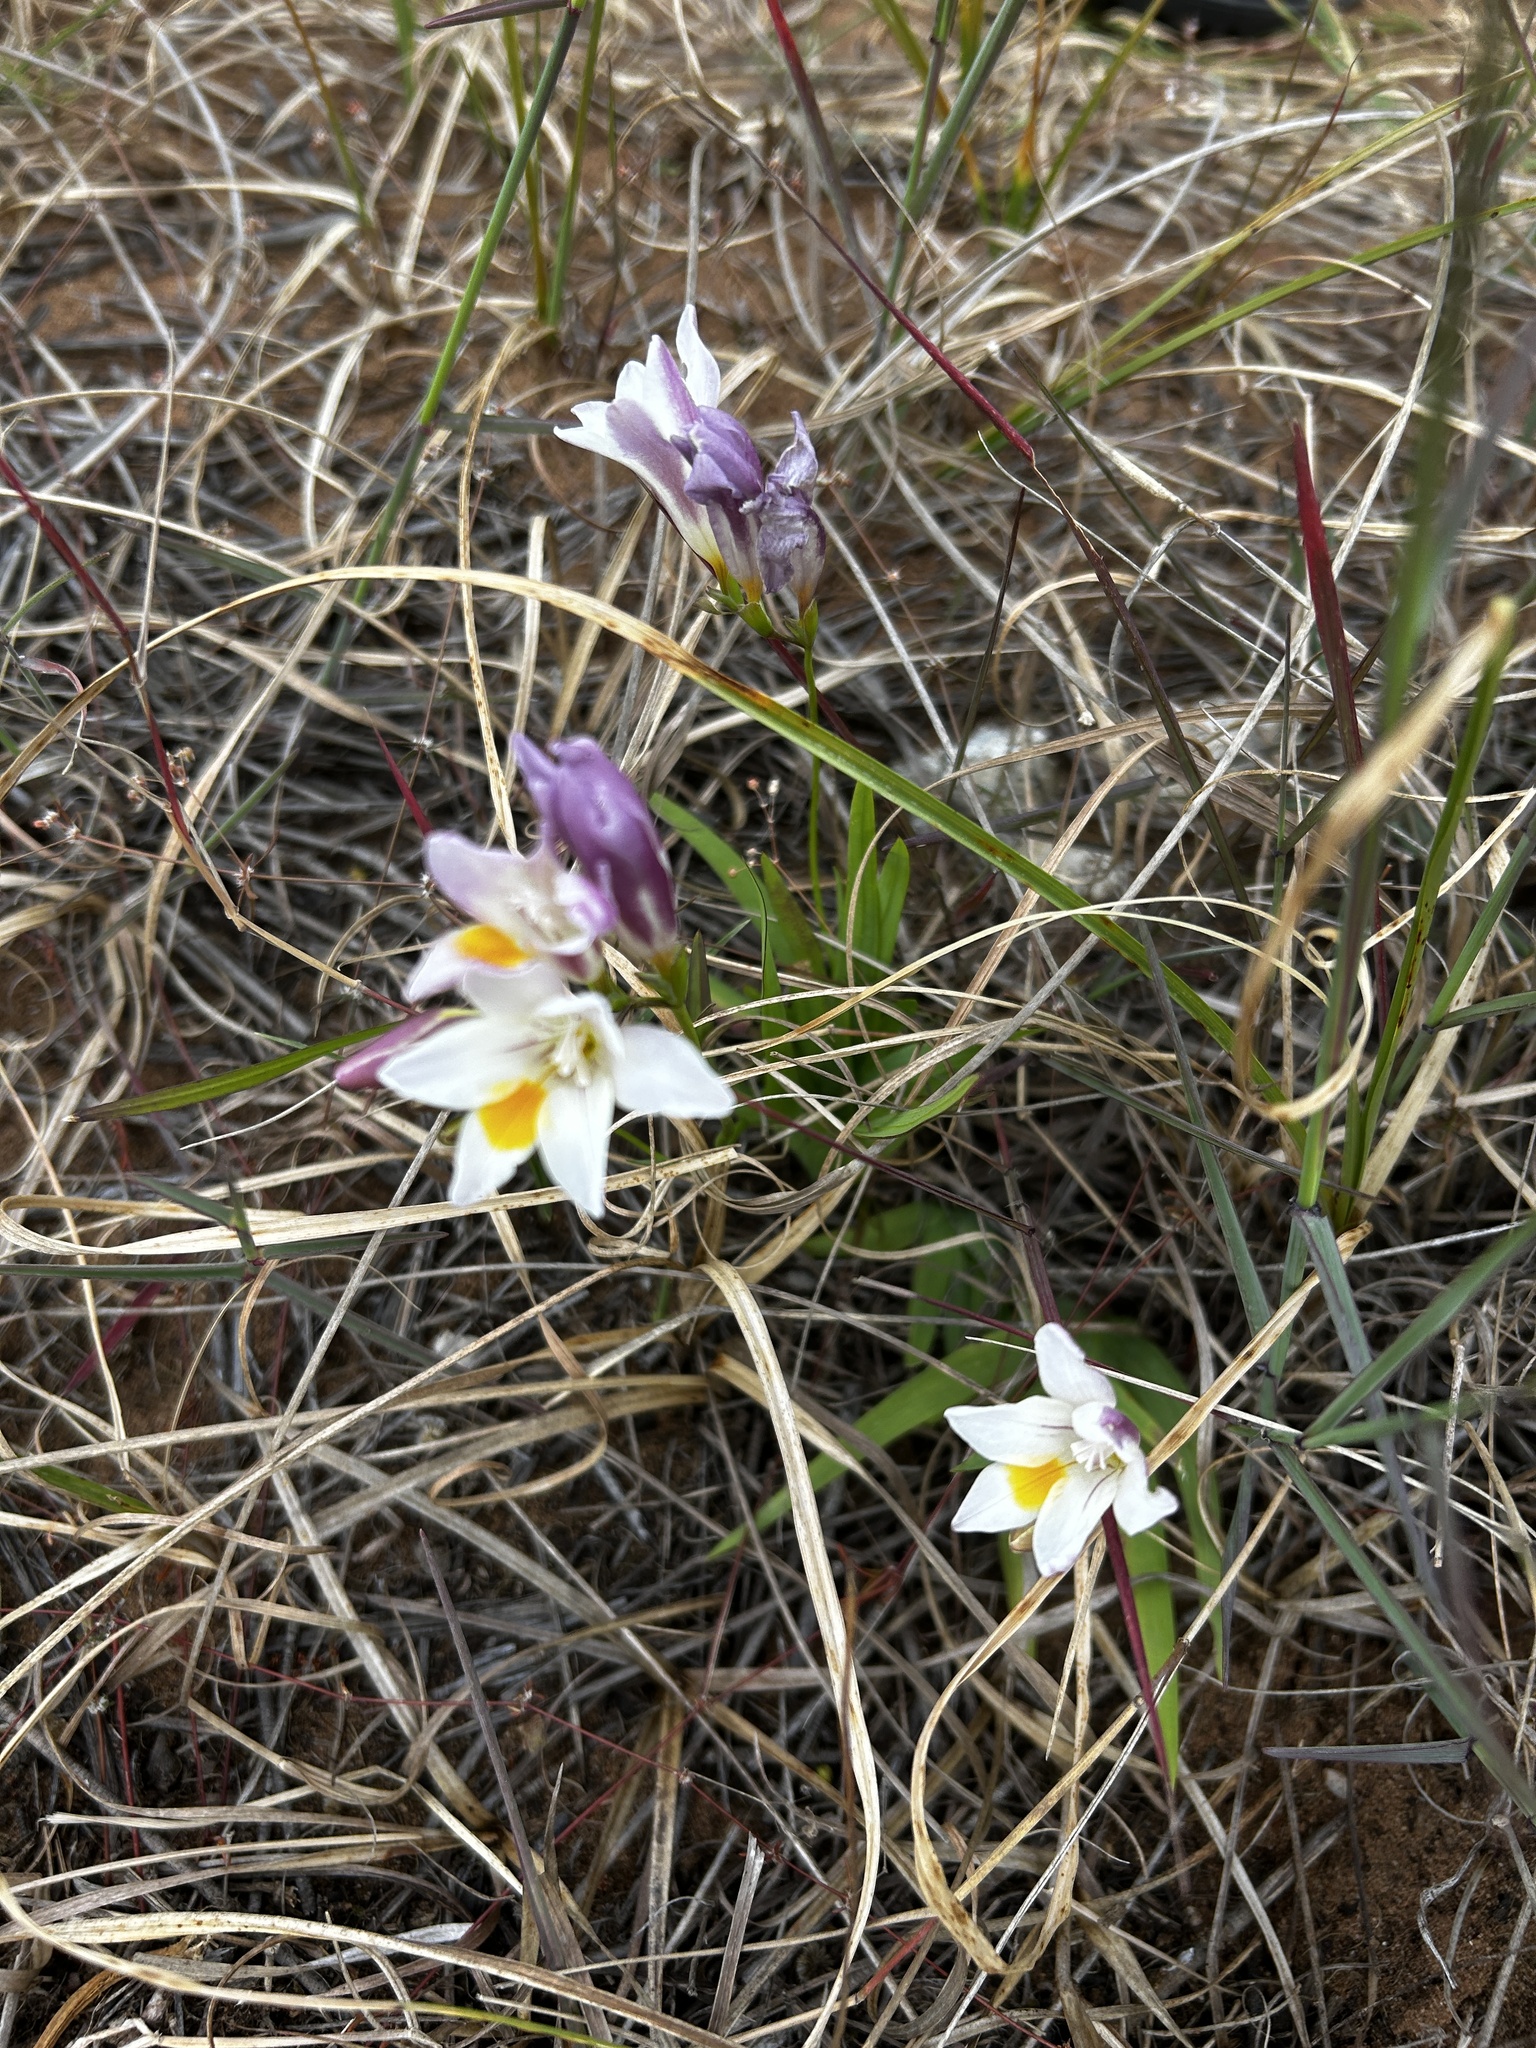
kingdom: Plantae
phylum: Tracheophyta
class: Liliopsida
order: Asparagales
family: Iridaceae
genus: Freesia
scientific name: Freesia leichtlinii
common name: Freesia
